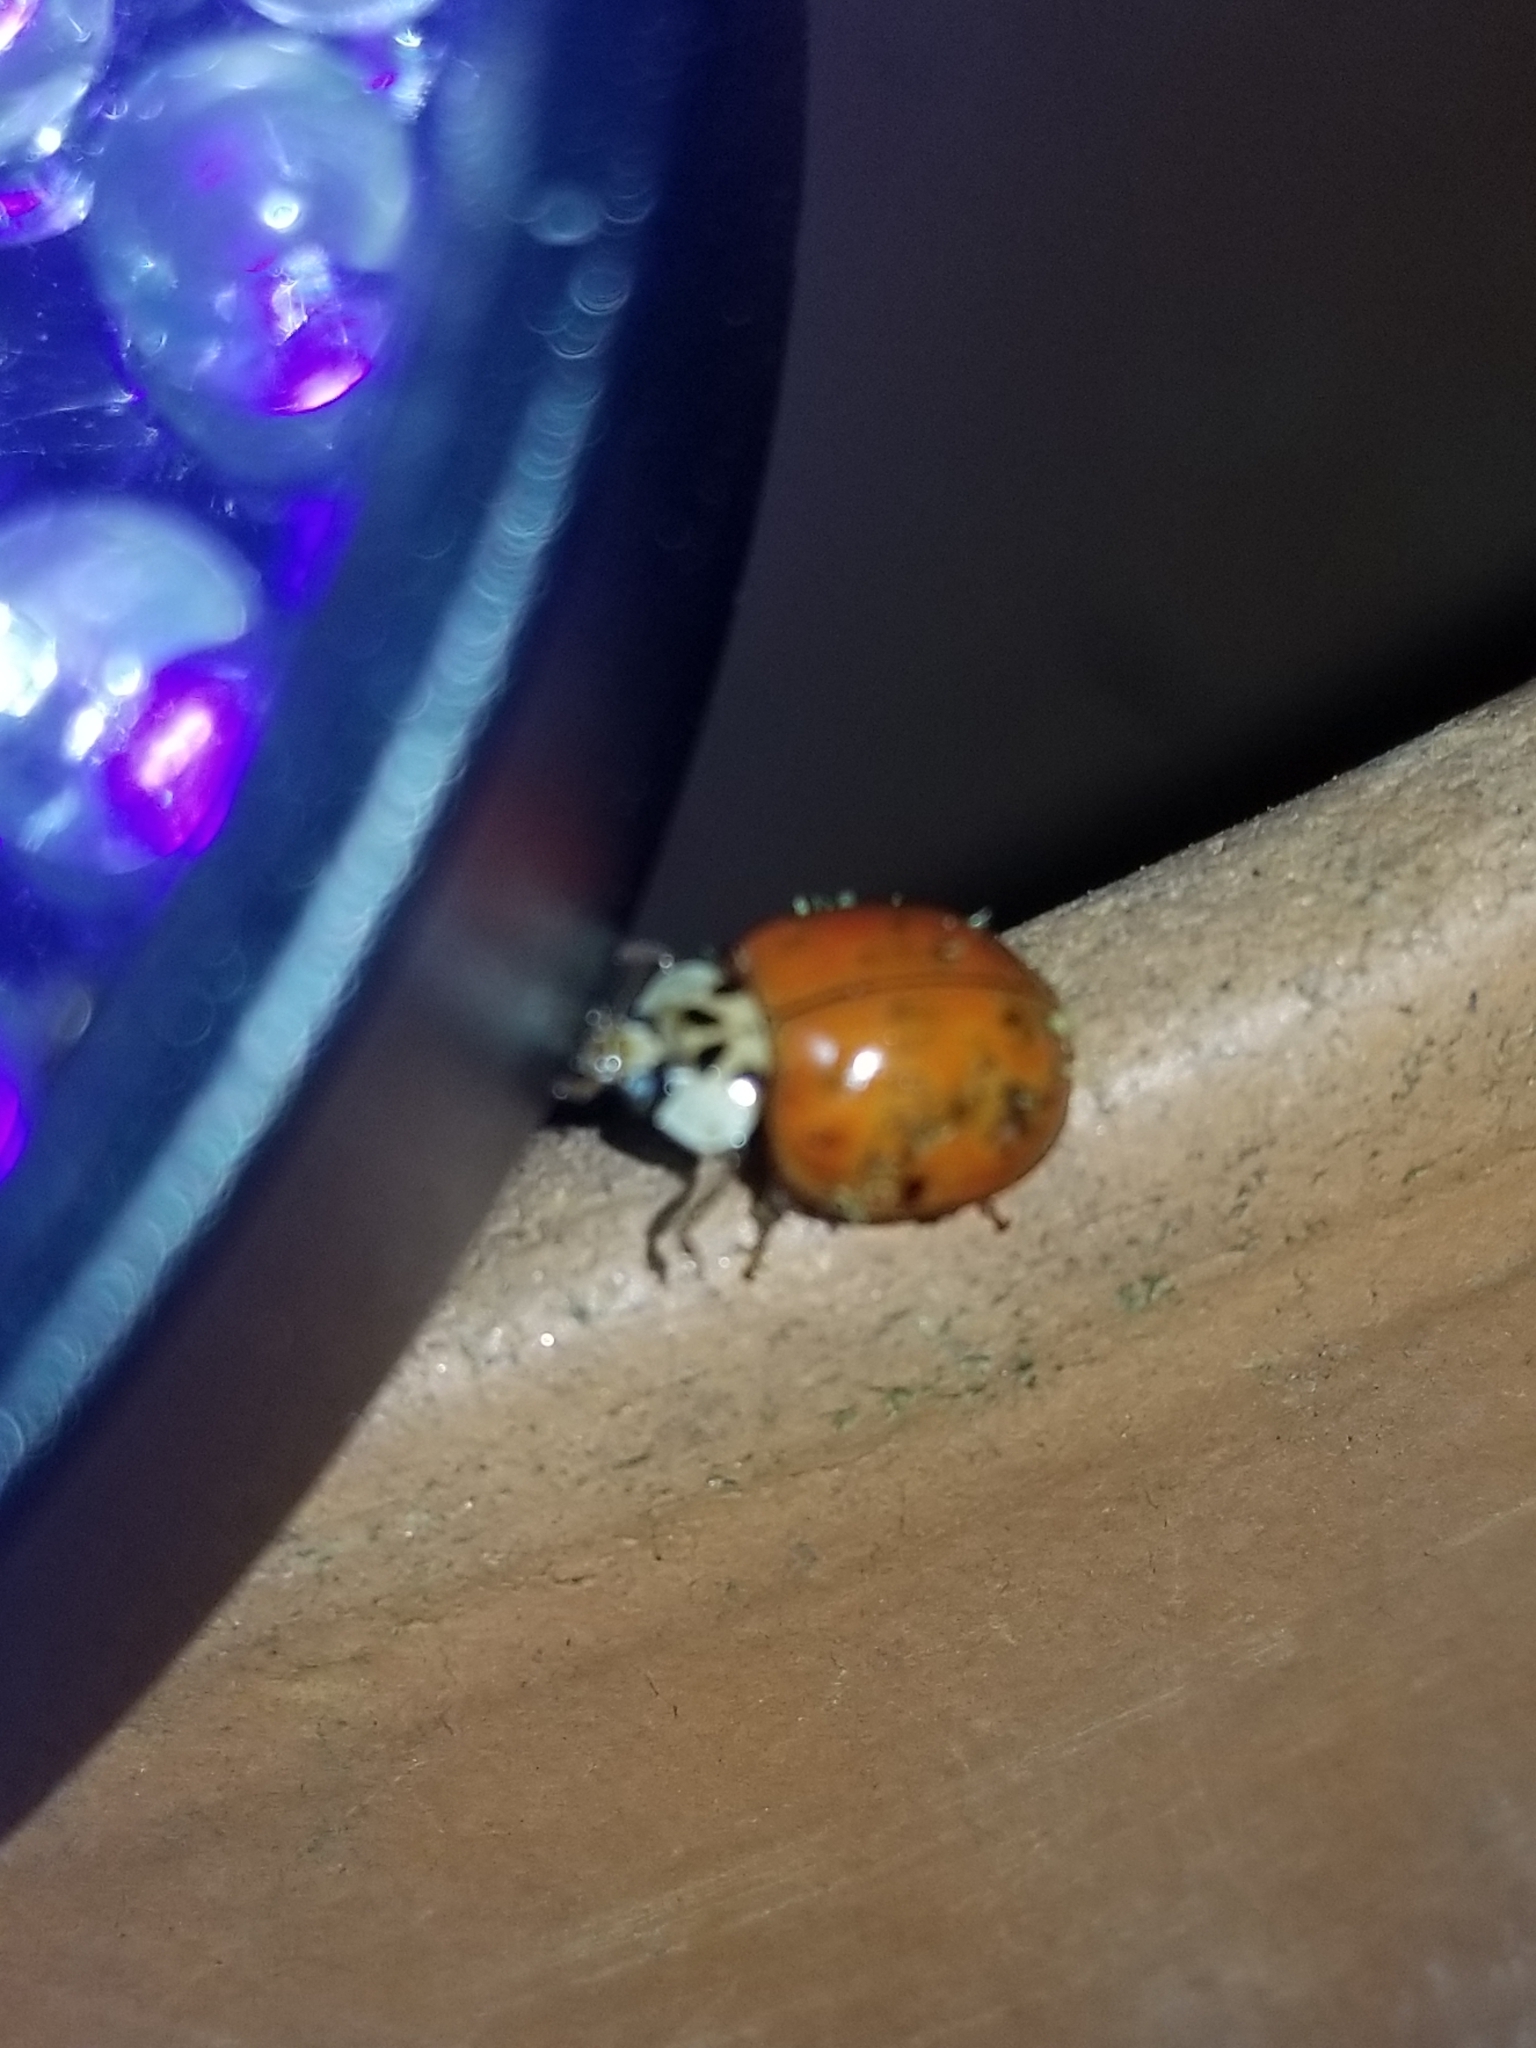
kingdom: Animalia
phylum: Arthropoda
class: Insecta
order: Coleoptera
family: Coccinellidae
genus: Harmonia
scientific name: Harmonia axyridis
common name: Harlequin ladybird
